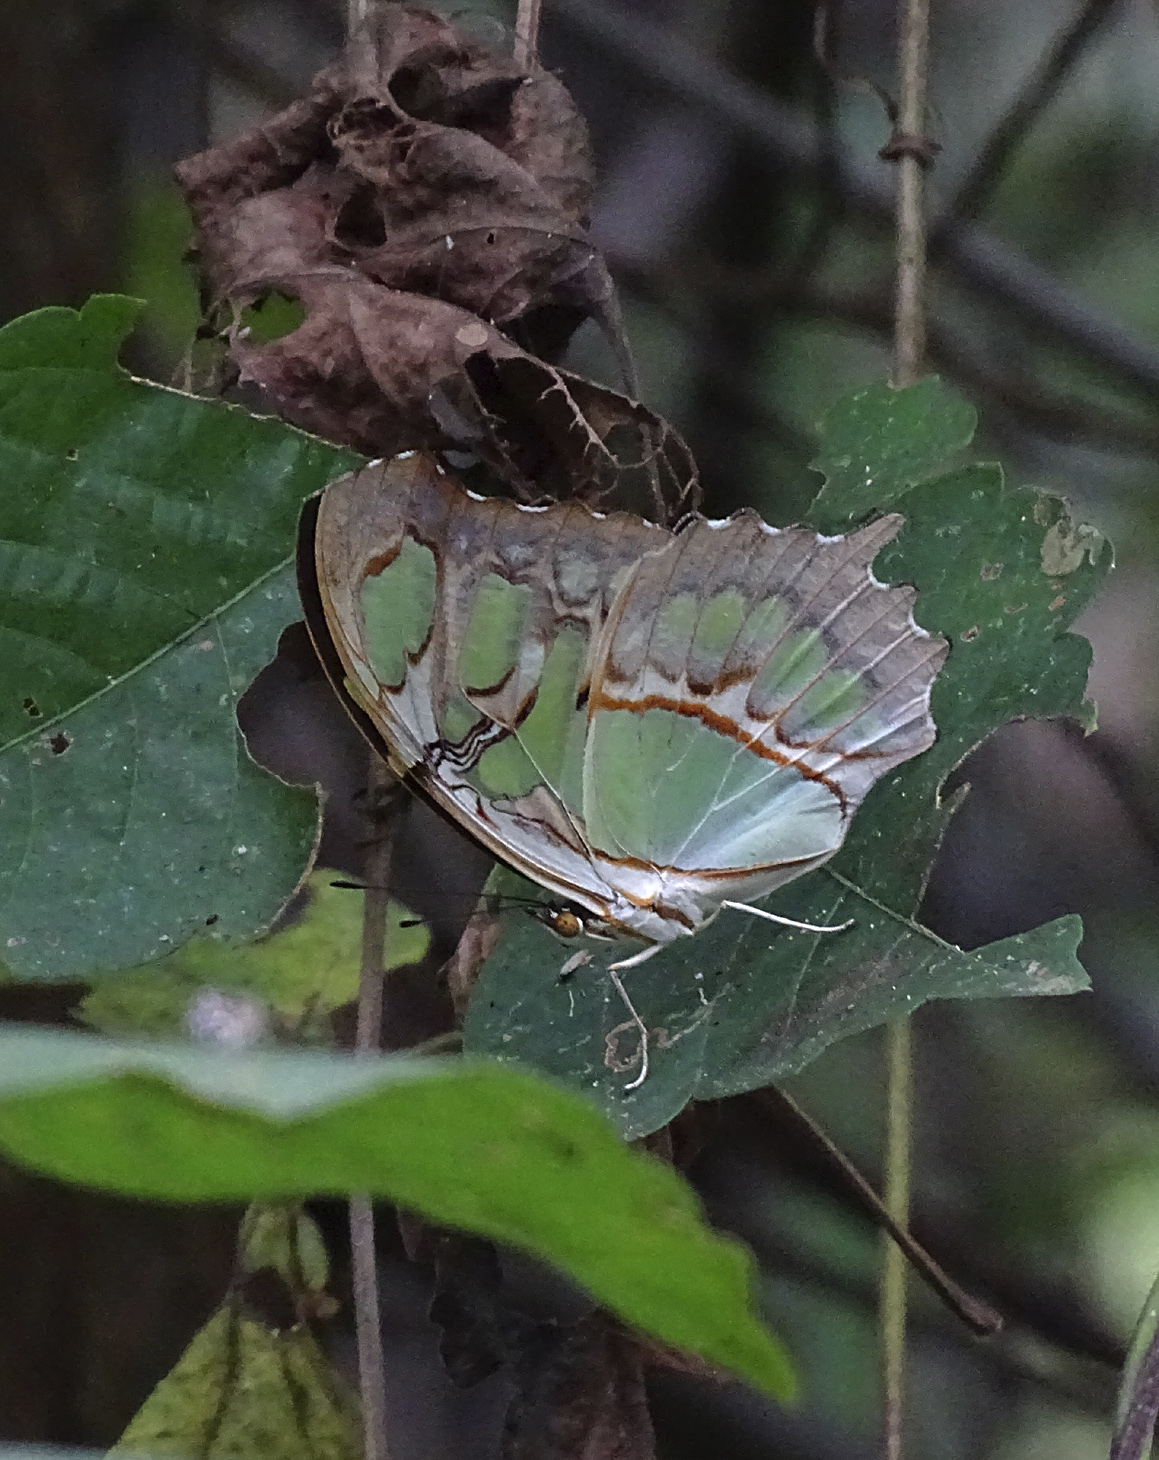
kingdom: Animalia
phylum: Arthropoda
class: Insecta
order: Lepidoptera
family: Nymphalidae
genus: Siproeta
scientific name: Siproeta stelenes
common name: Malachite
